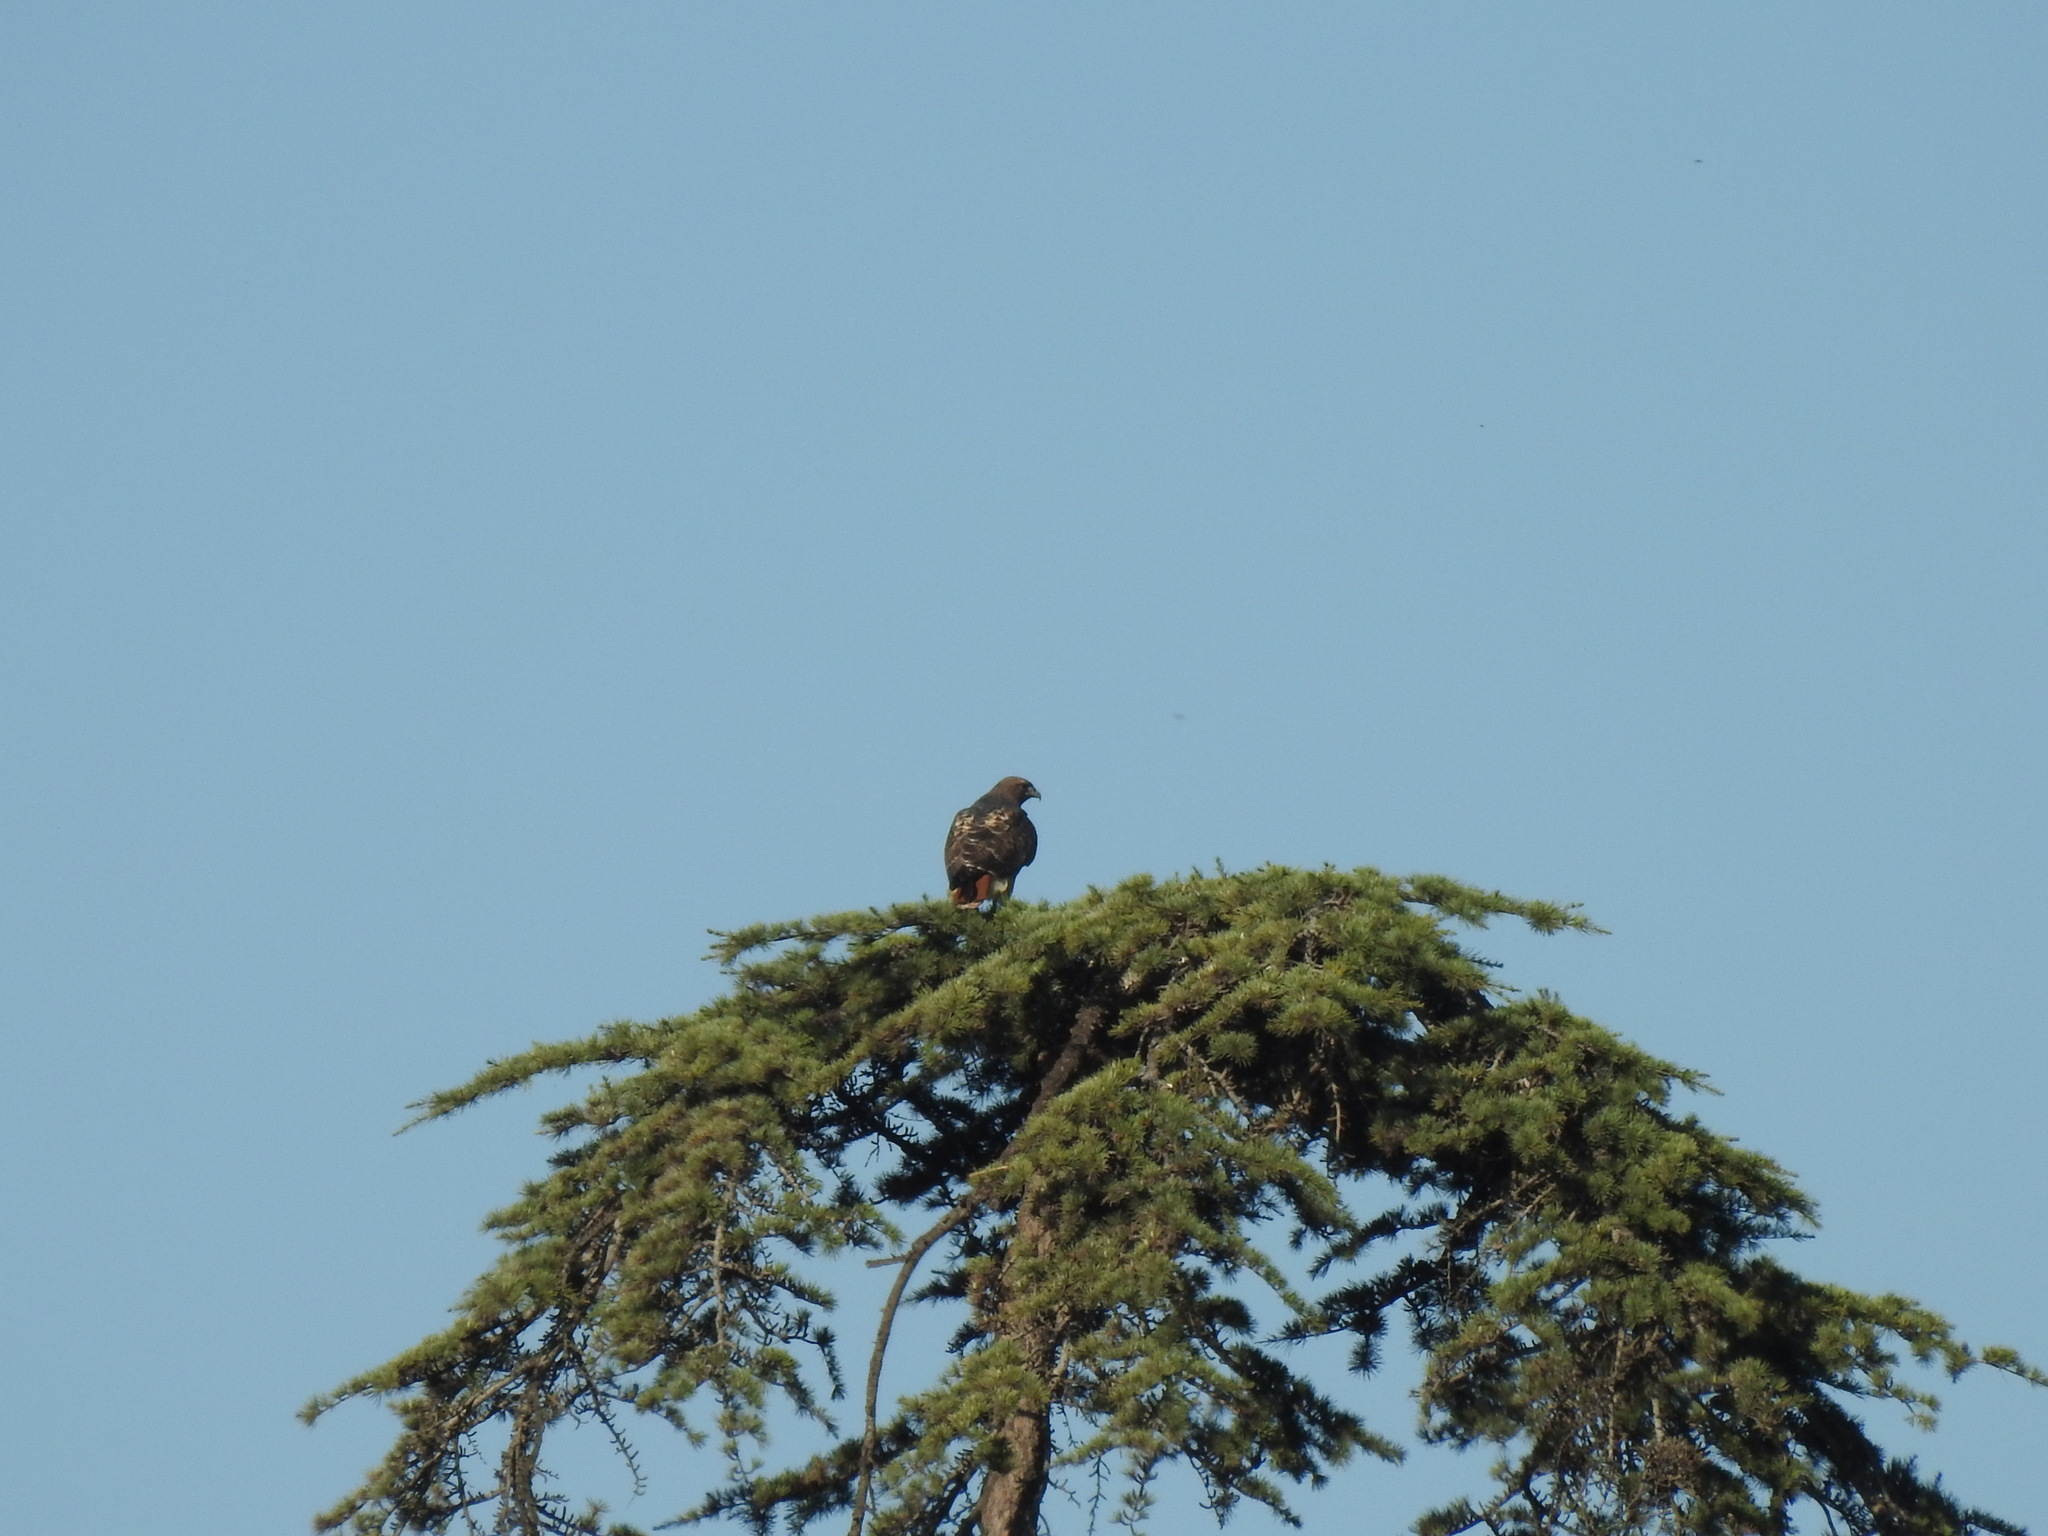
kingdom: Animalia
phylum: Chordata
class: Aves
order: Accipitriformes
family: Accipitridae
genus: Buteo
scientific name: Buteo jamaicensis
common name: Red-tailed hawk
